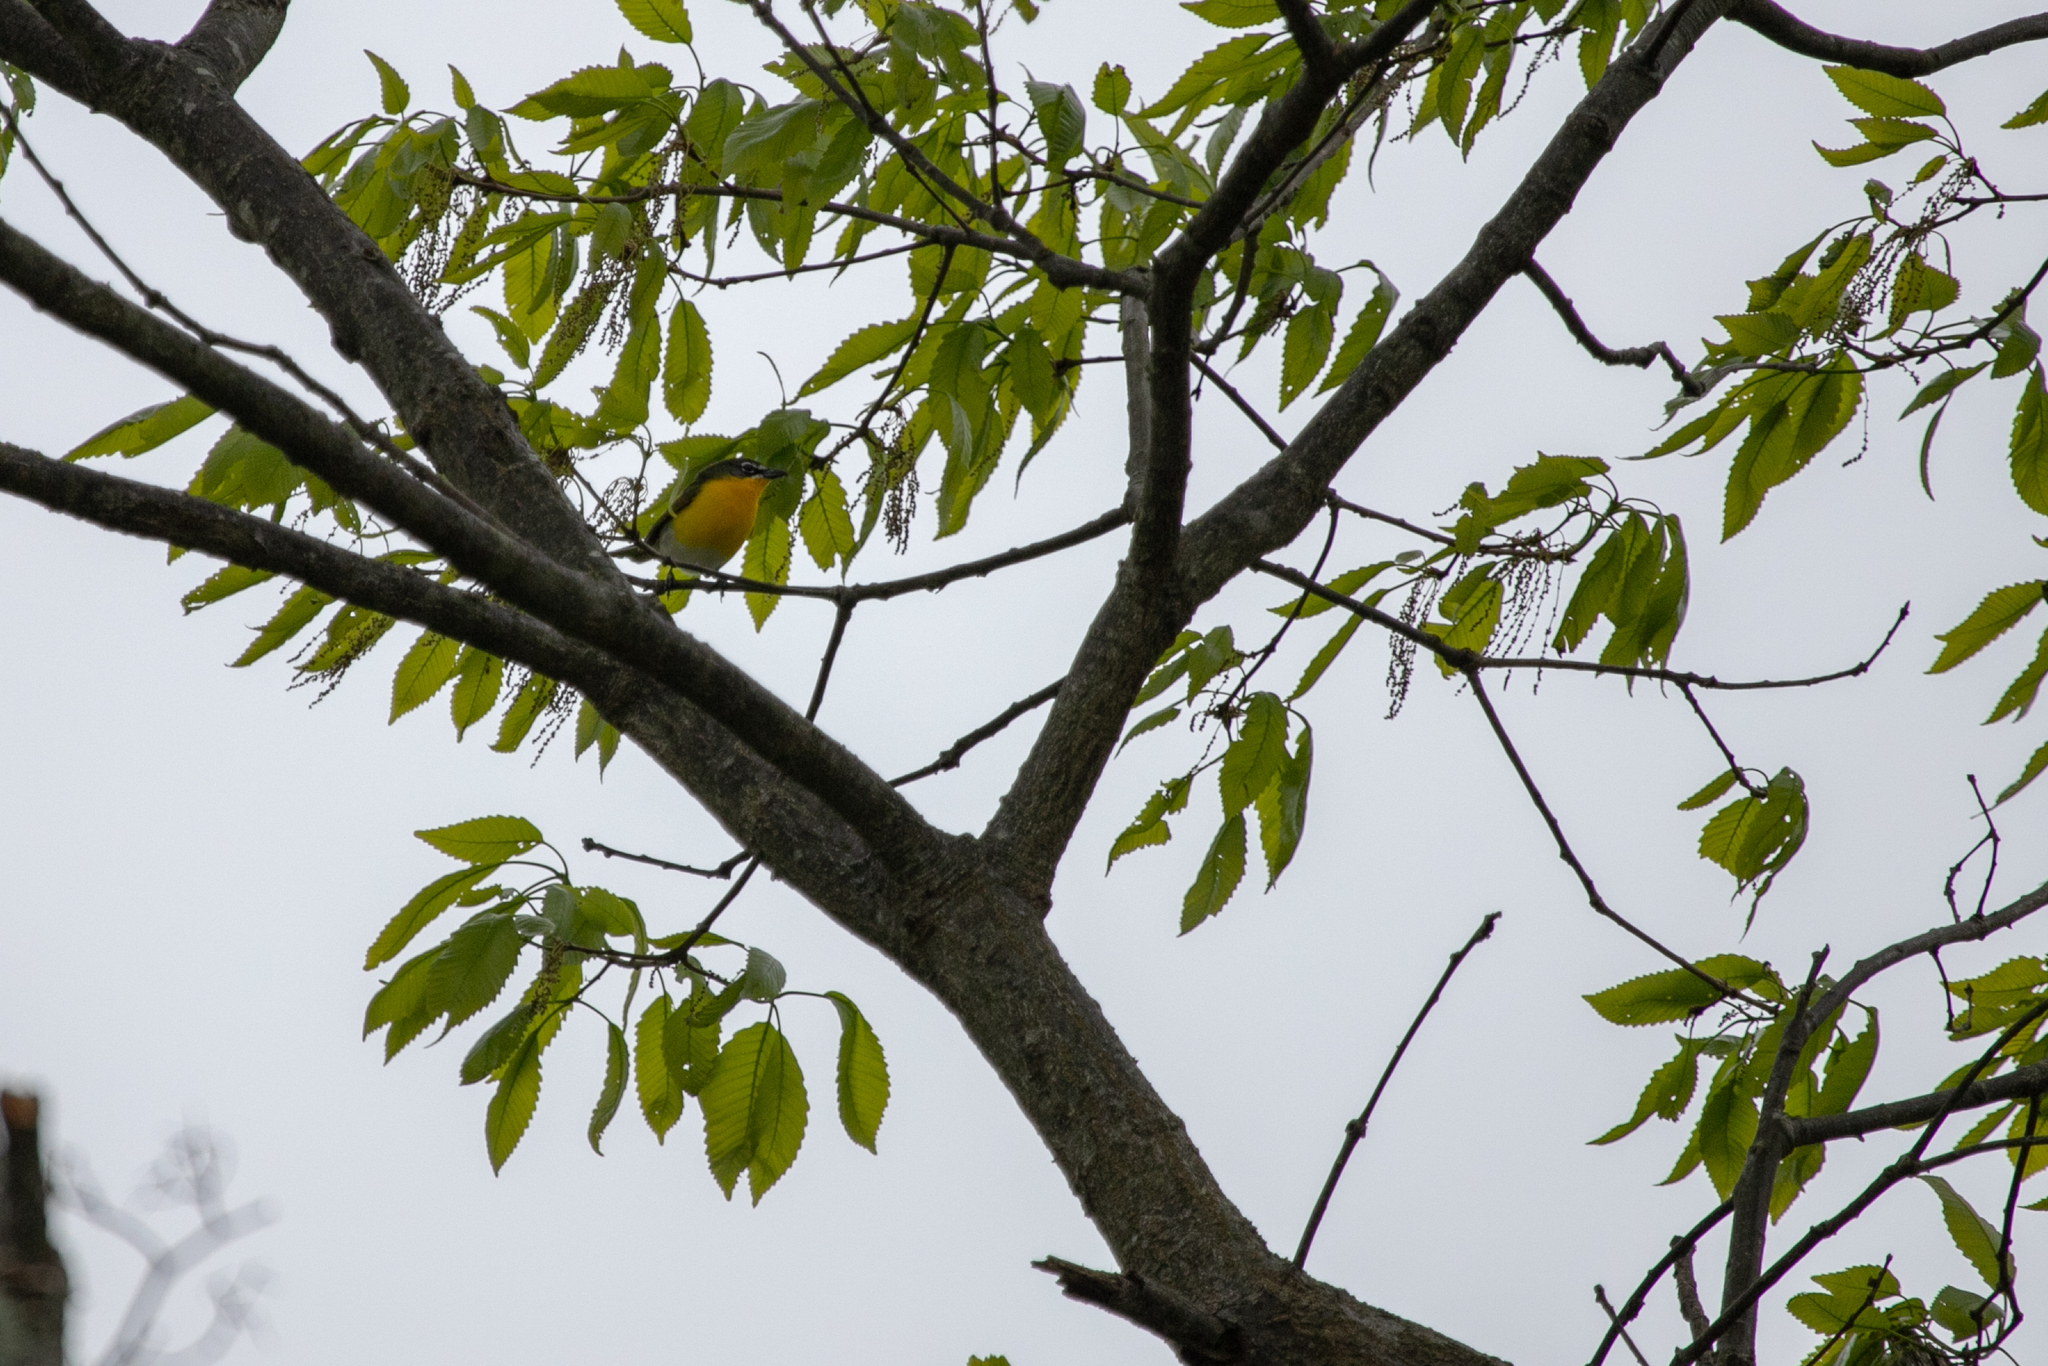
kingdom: Animalia
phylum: Chordata
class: Aves
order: Passeriformes
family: Parulidae
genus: Icteria
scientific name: Icteria virens
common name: Yellow-breasted chat
